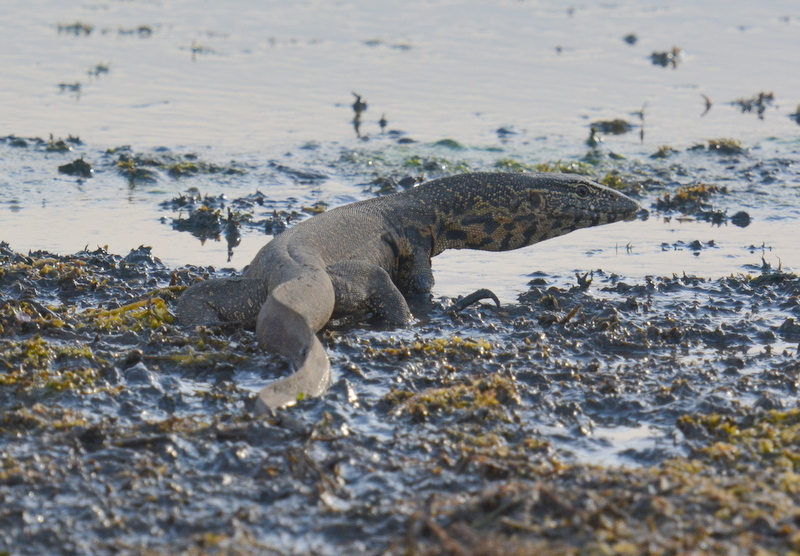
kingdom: Animalia
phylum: Chordata
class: Squamata
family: Varanidae
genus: Varanus
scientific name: Varanus niloticus
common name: Nile monitor
